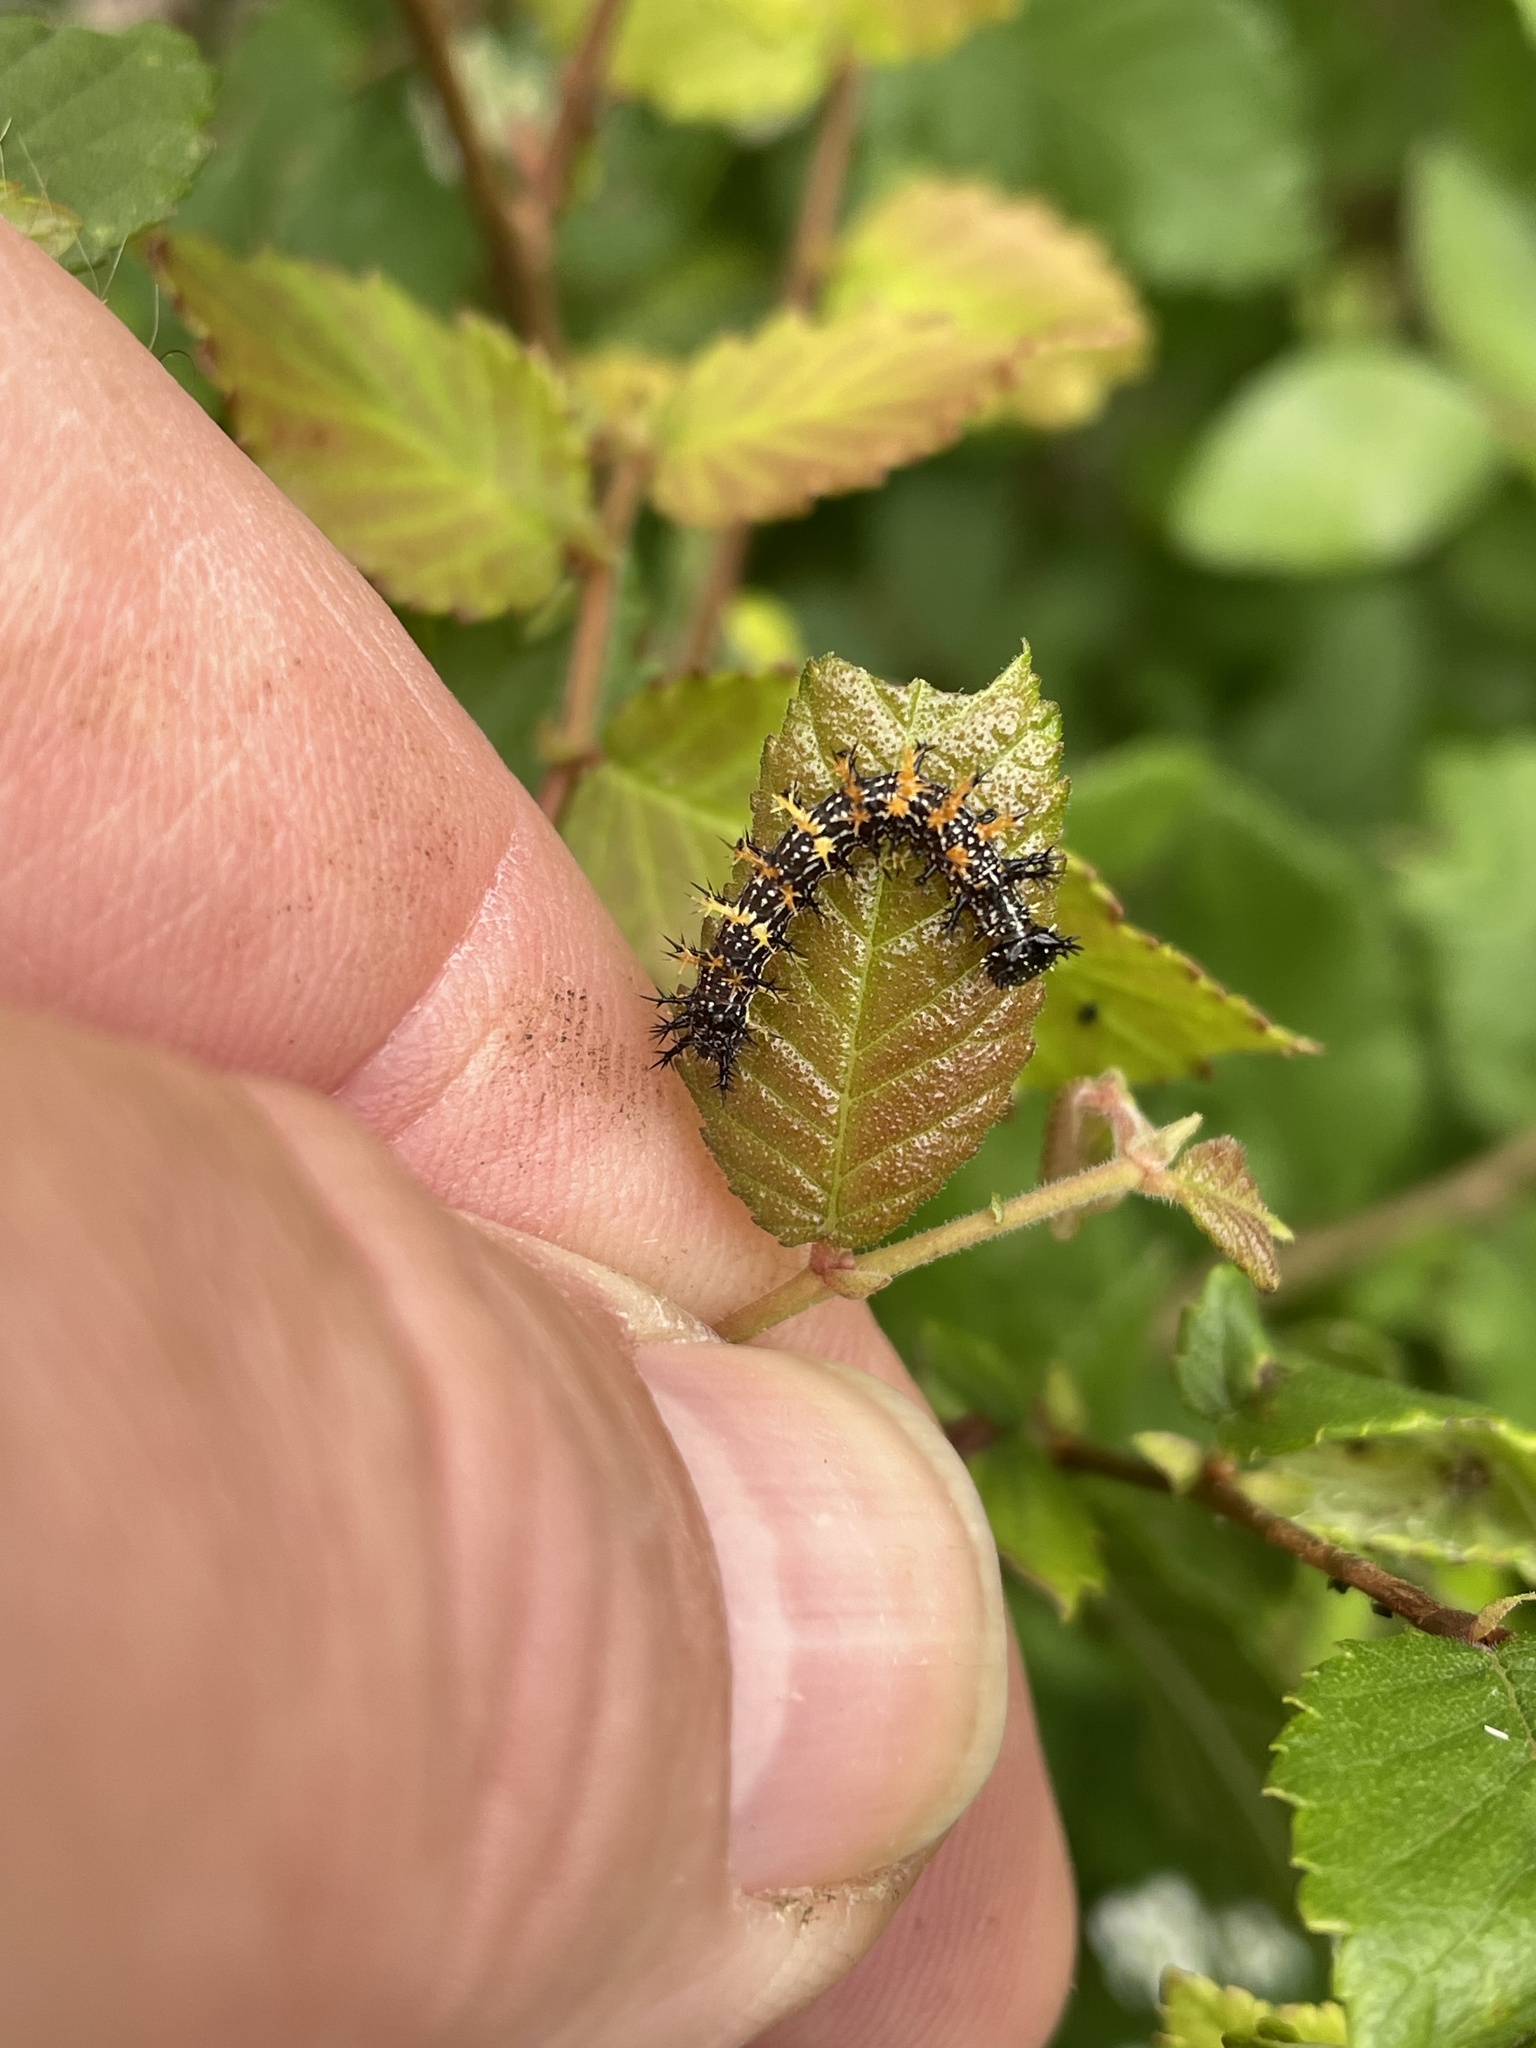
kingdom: Animalia
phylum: Arthropoda
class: Insecta
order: Lepidoptera
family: Nymphalidae
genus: Polygonia
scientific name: Polygonia interrogationis
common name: Question mark
